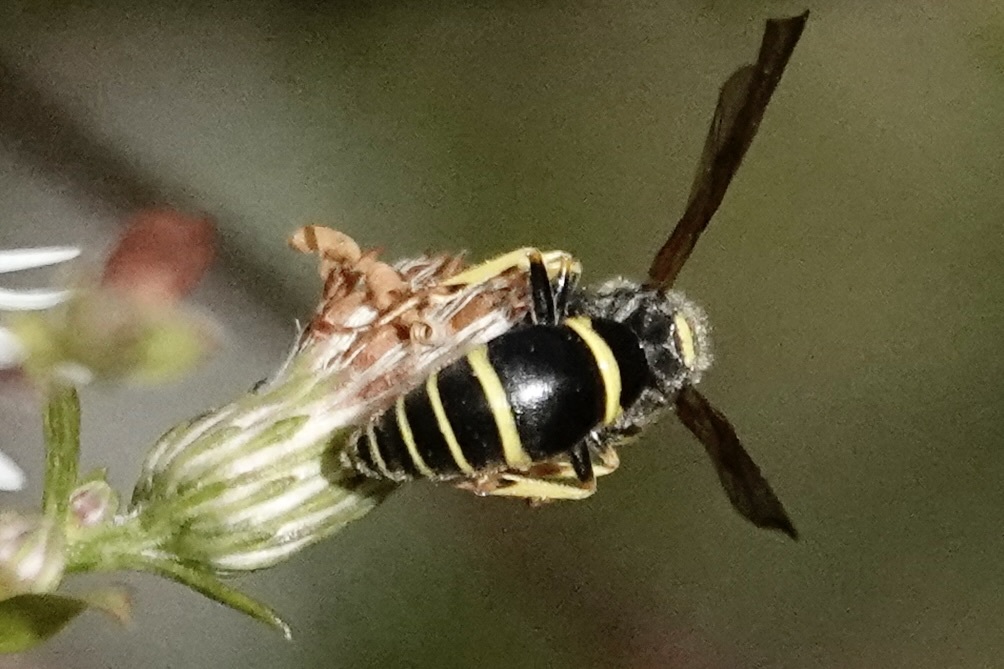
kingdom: Animalia
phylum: Arthropoda
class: Insecta
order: Hymenoptera
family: Vespidae
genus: Ancistrocerus
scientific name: Ancistrocerus adiabatus
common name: Bramble mason wasp
